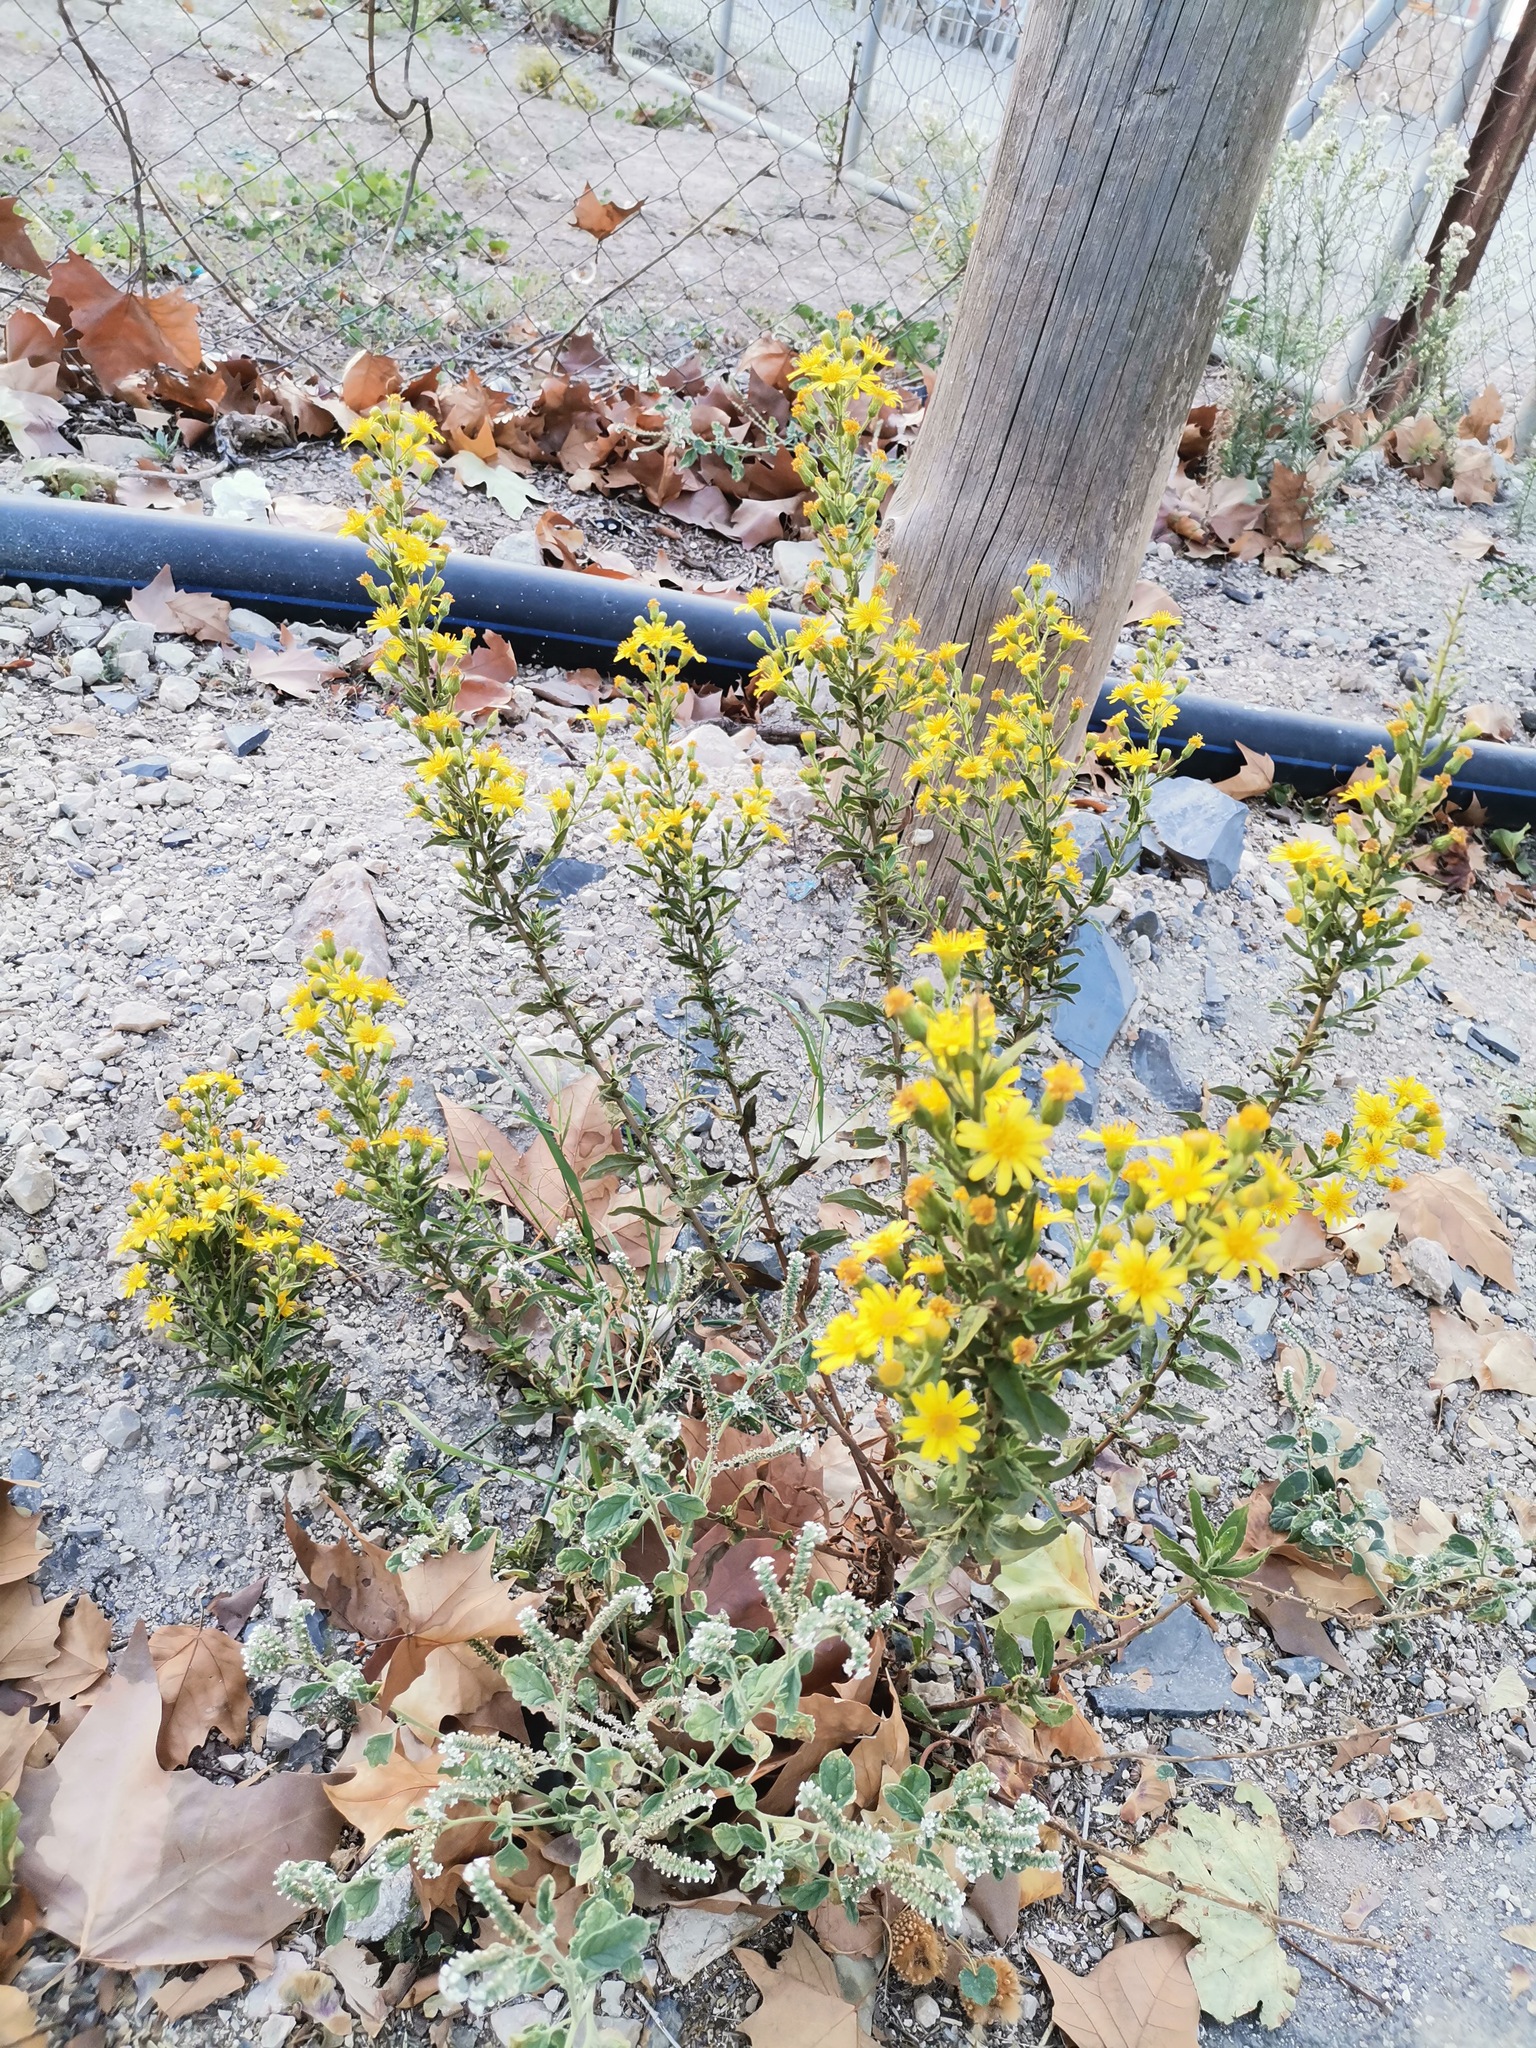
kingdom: Plantae
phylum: Tracheophyta
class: Magnoliopsida
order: Asterales
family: Asteraceae
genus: Dittrichia
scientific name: Dittrichia viscosa
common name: Woody fleabane
